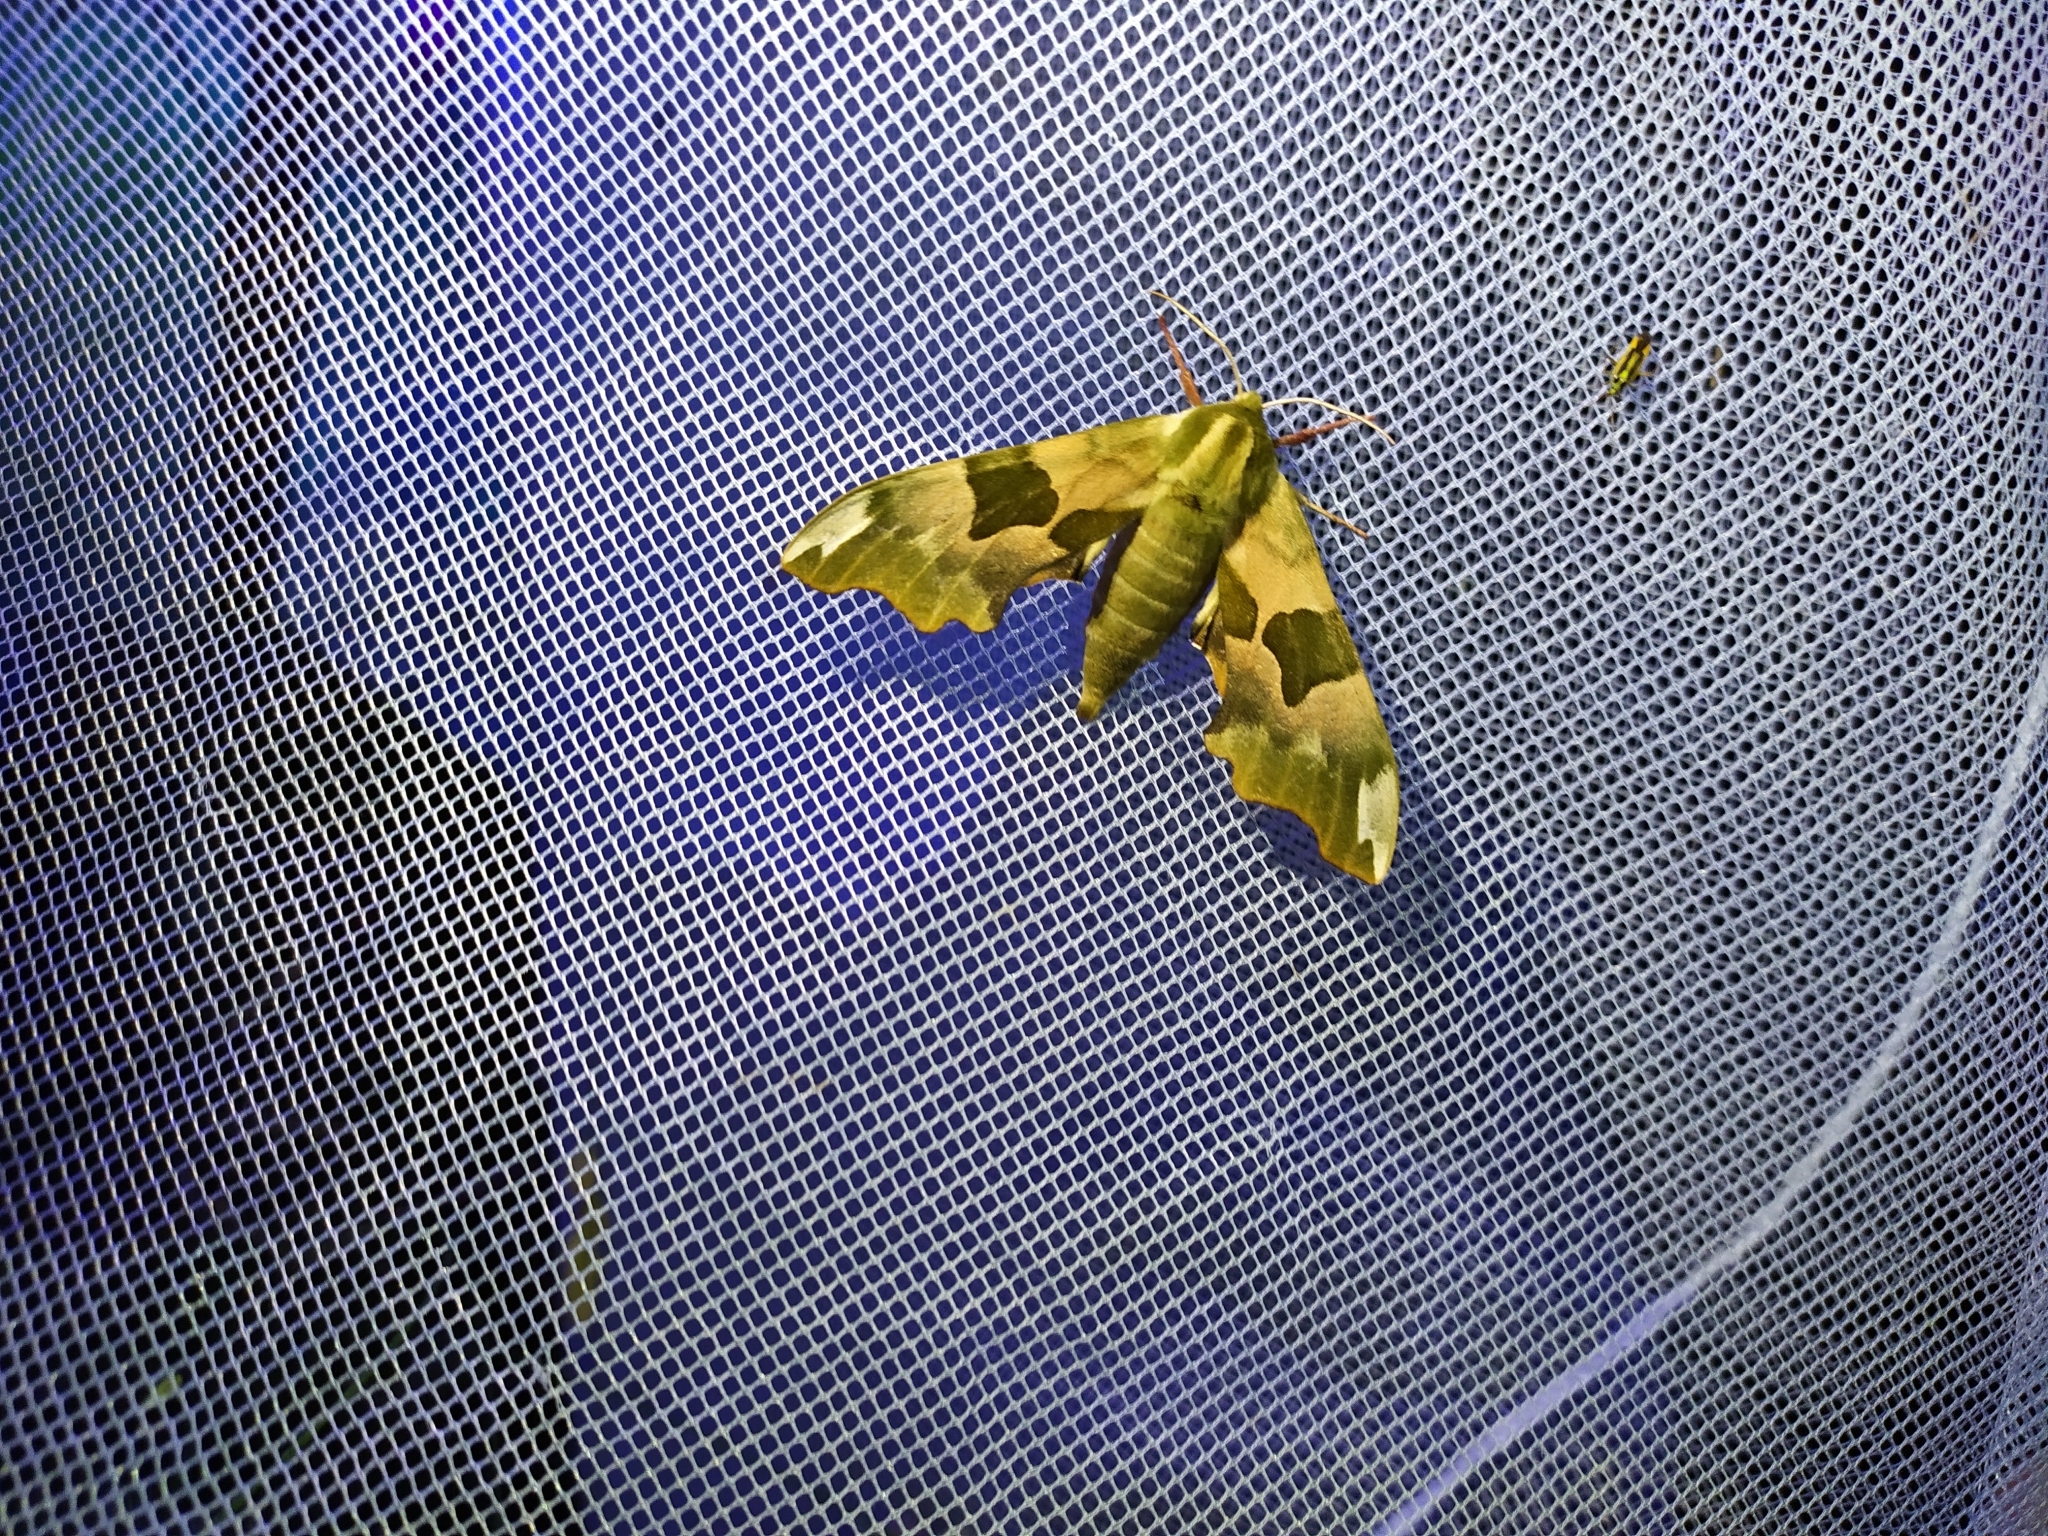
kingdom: Animalia
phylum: Arthropoda
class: Insecta
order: Lepidoptera
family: Sphingidae
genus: Mimas
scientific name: Mimas tiliae
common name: Lime hawk-moth
